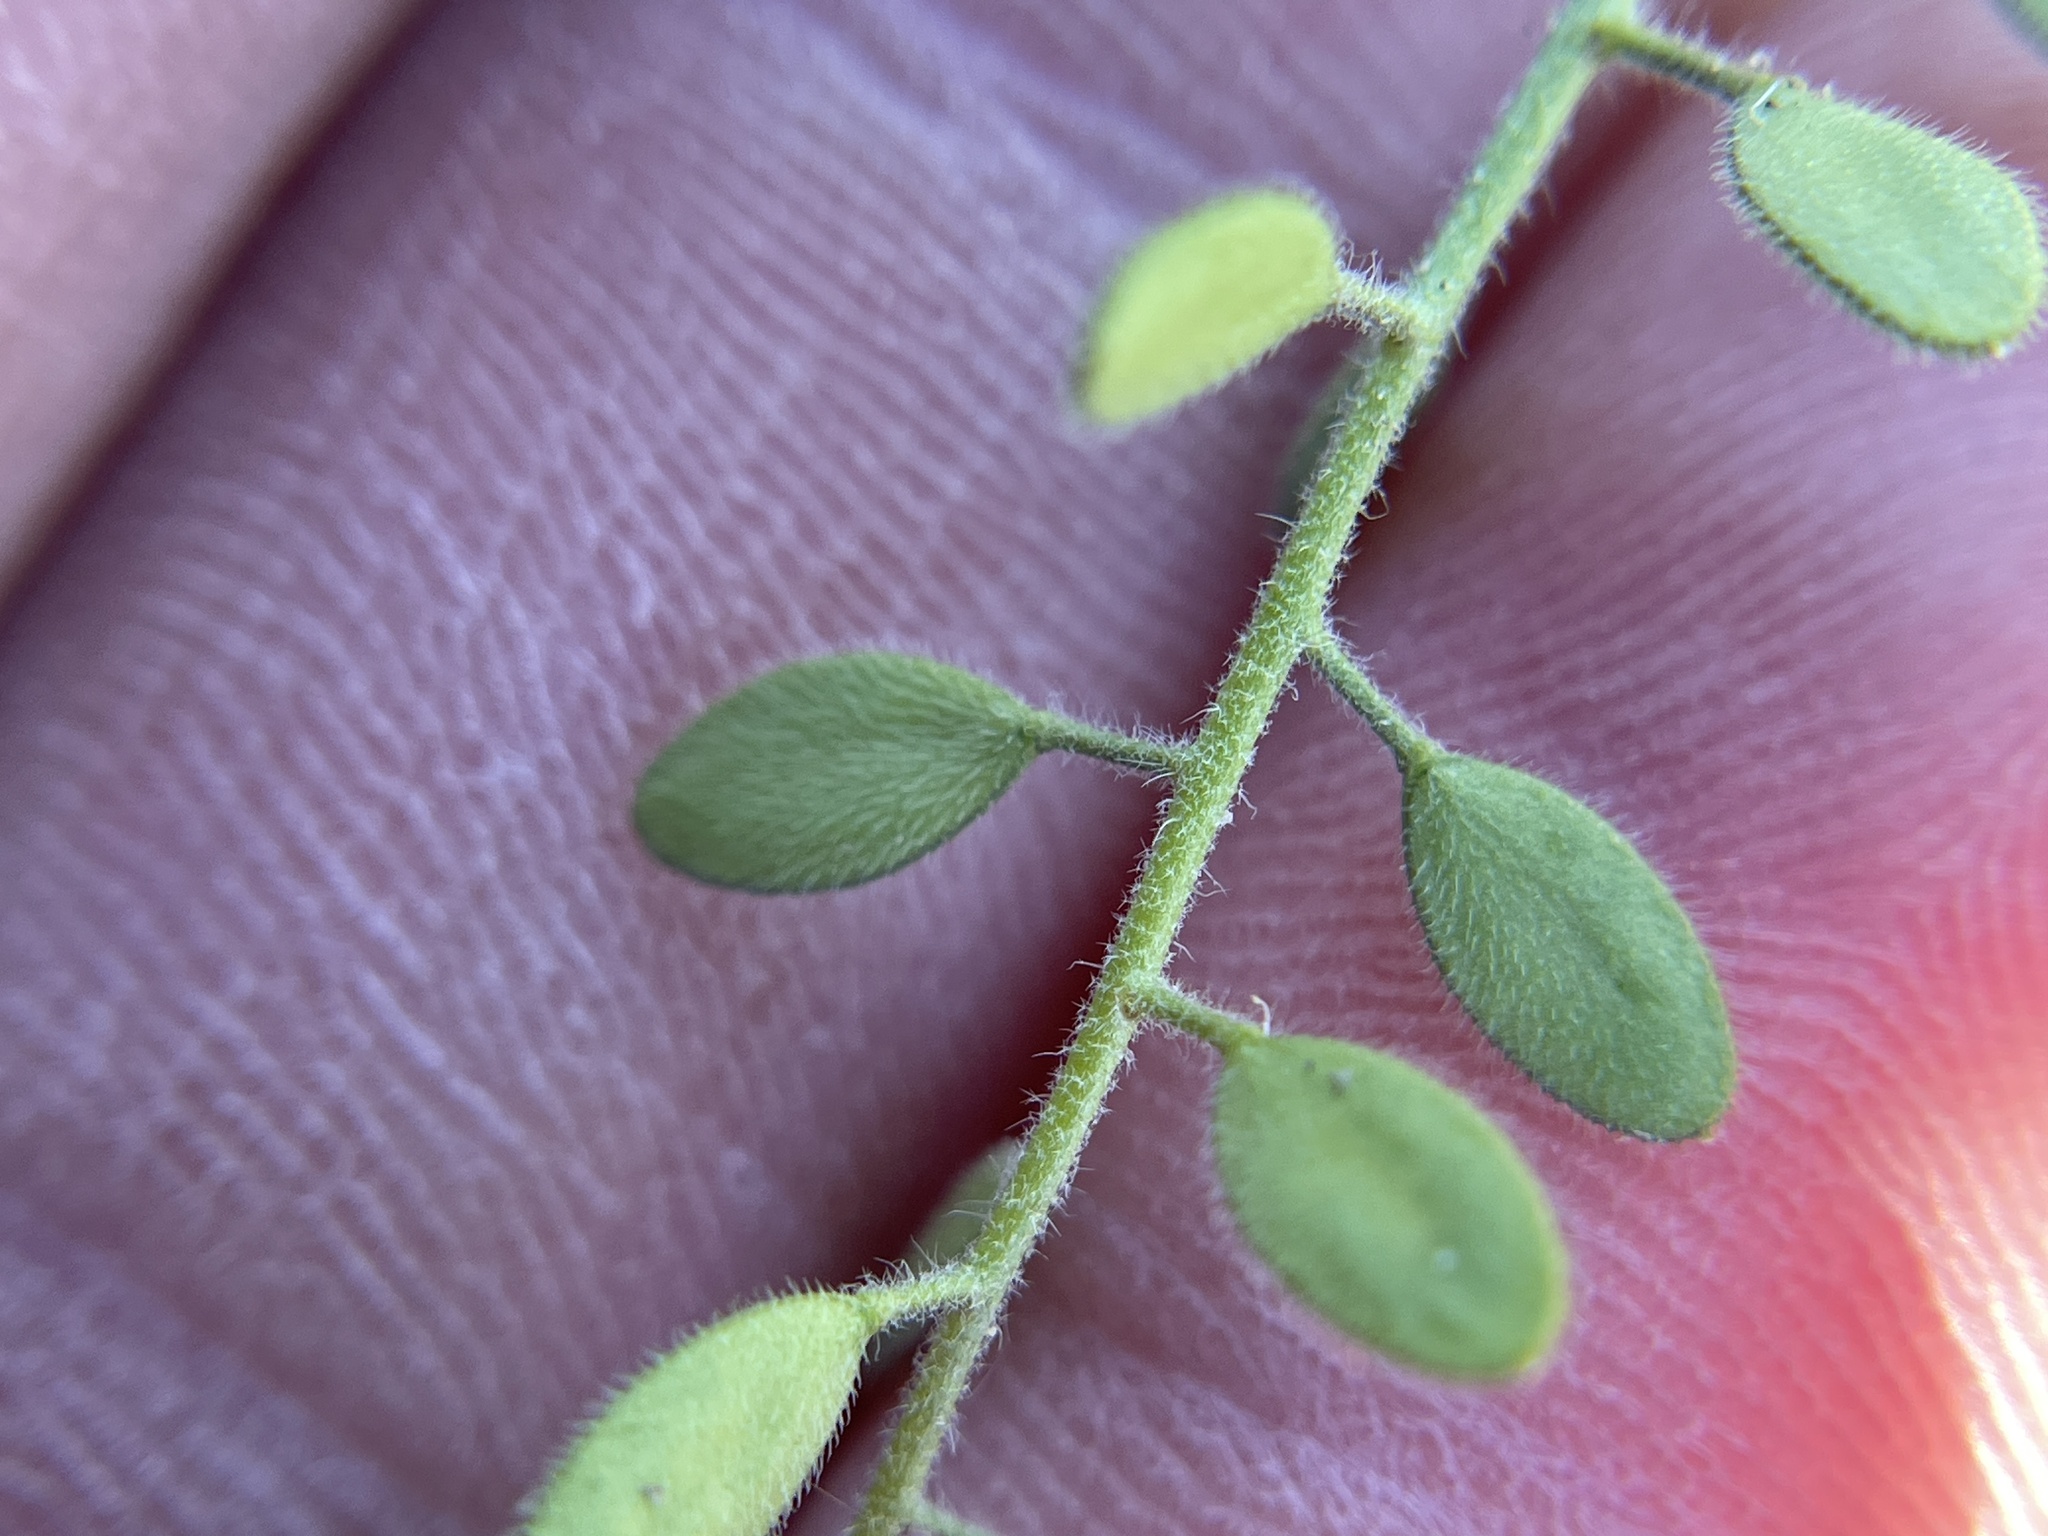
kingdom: Plantae
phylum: Tracheophyta
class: Magnoliopsida
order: Brassicales
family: Brassicaceae
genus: Tomostima
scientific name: Tomostima platycarpa
